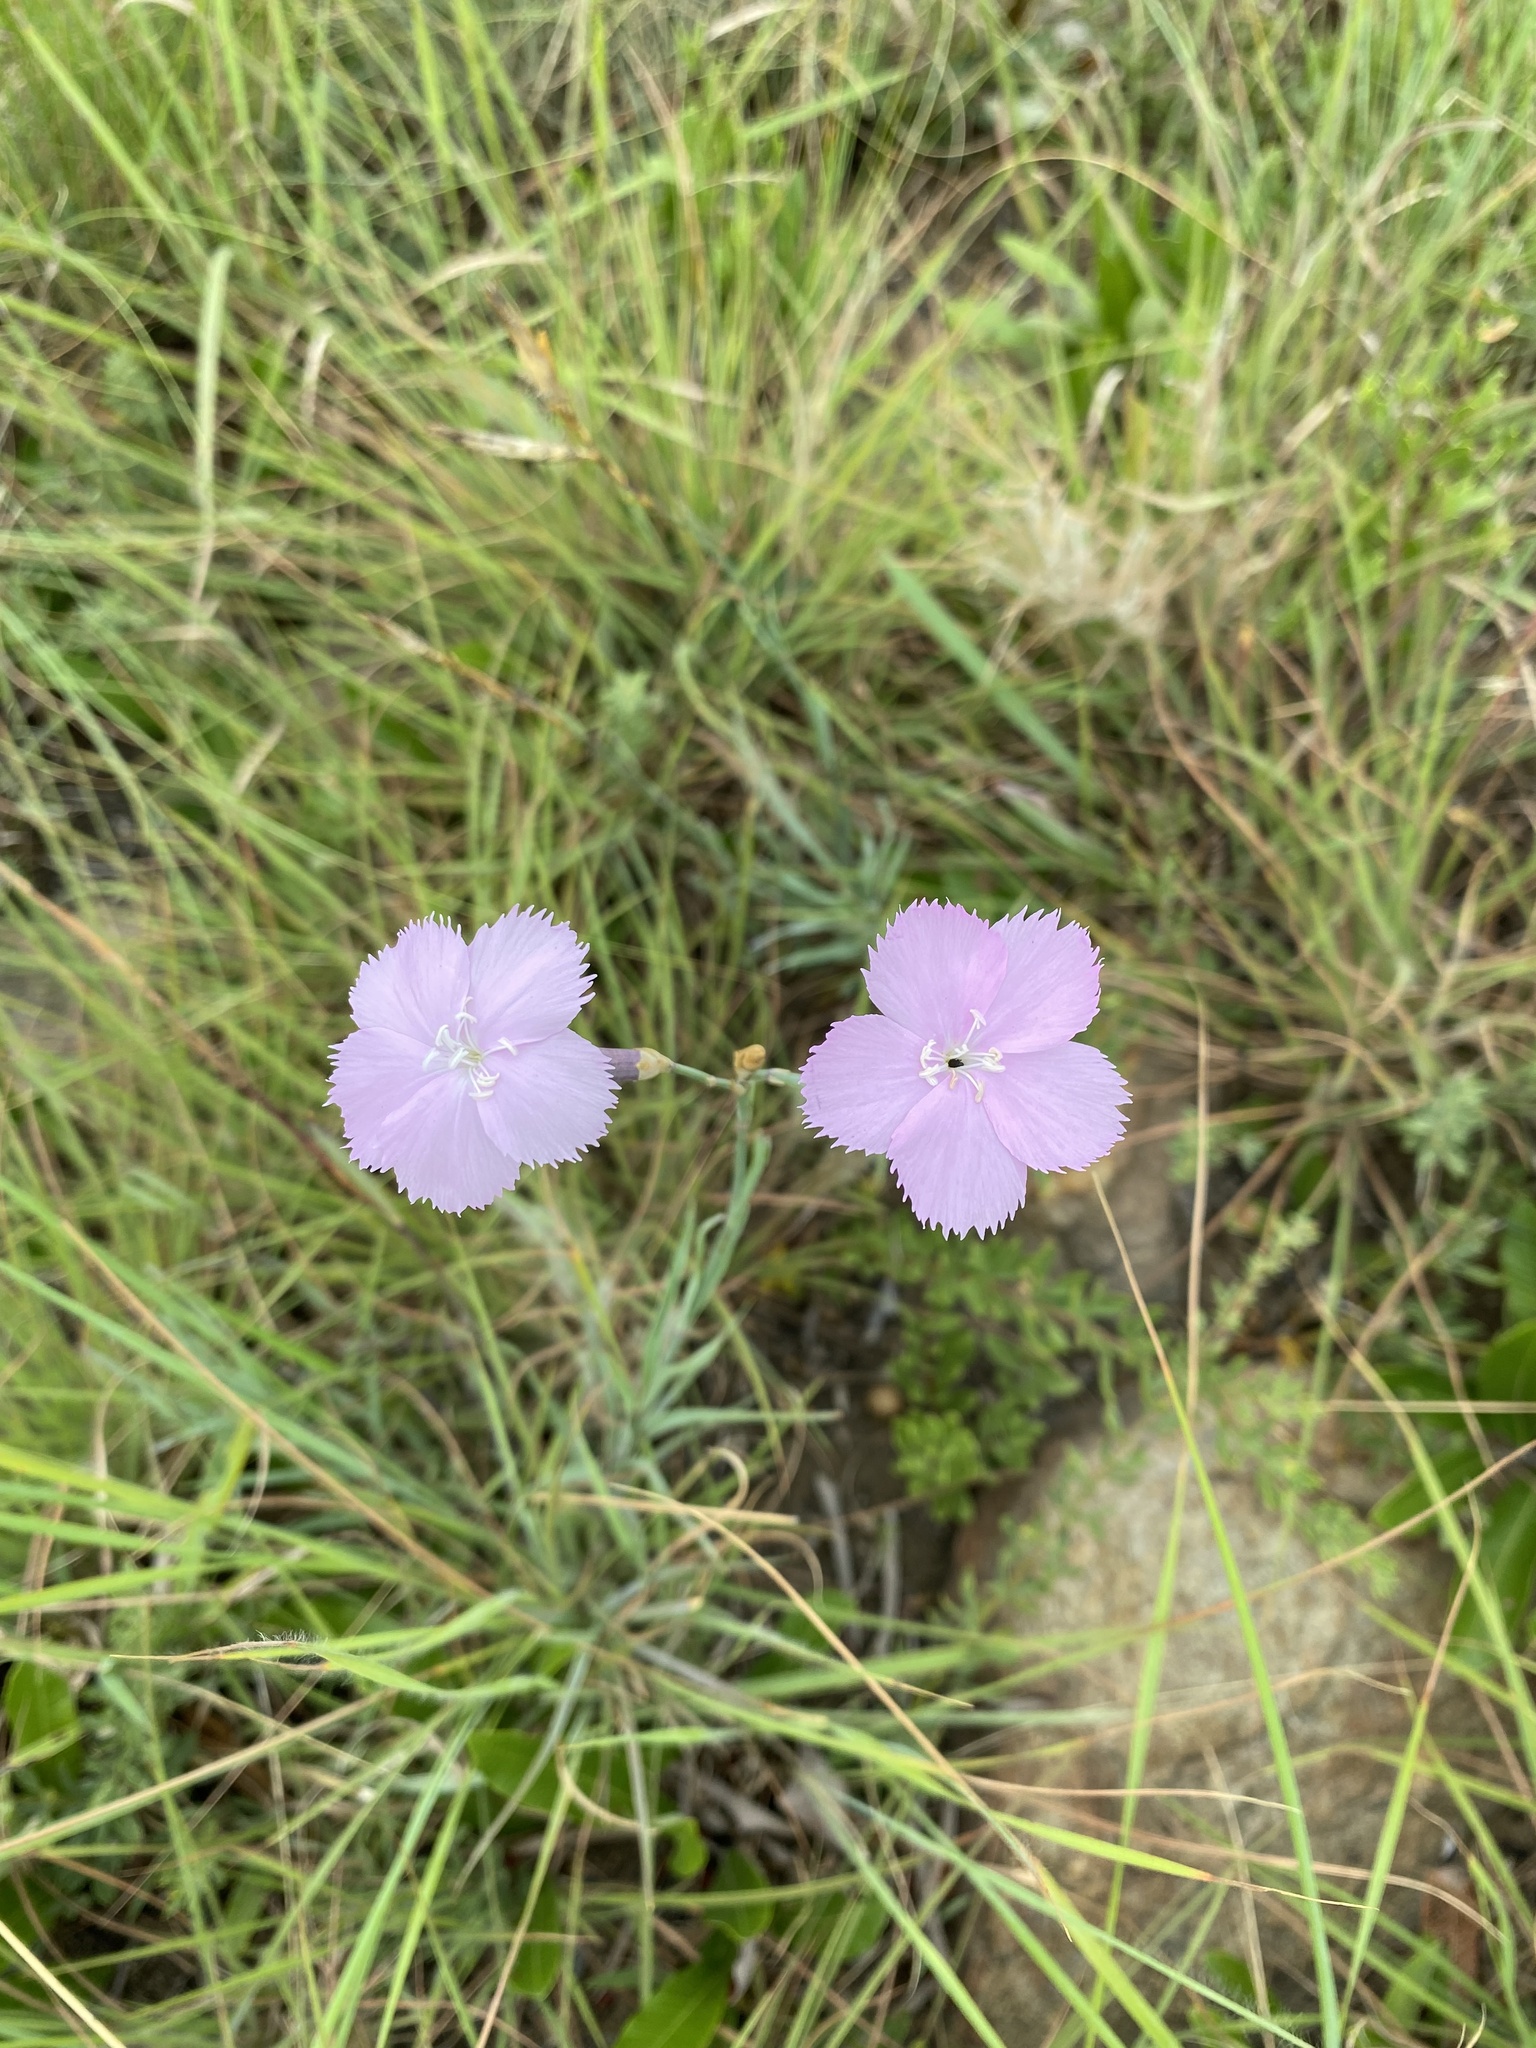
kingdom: Plantae
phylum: Tracheophyta
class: Magnoliopsida
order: Caryophyllales
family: Caryophyllaceae
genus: Dianthus
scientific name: Dianthus zeyheri
